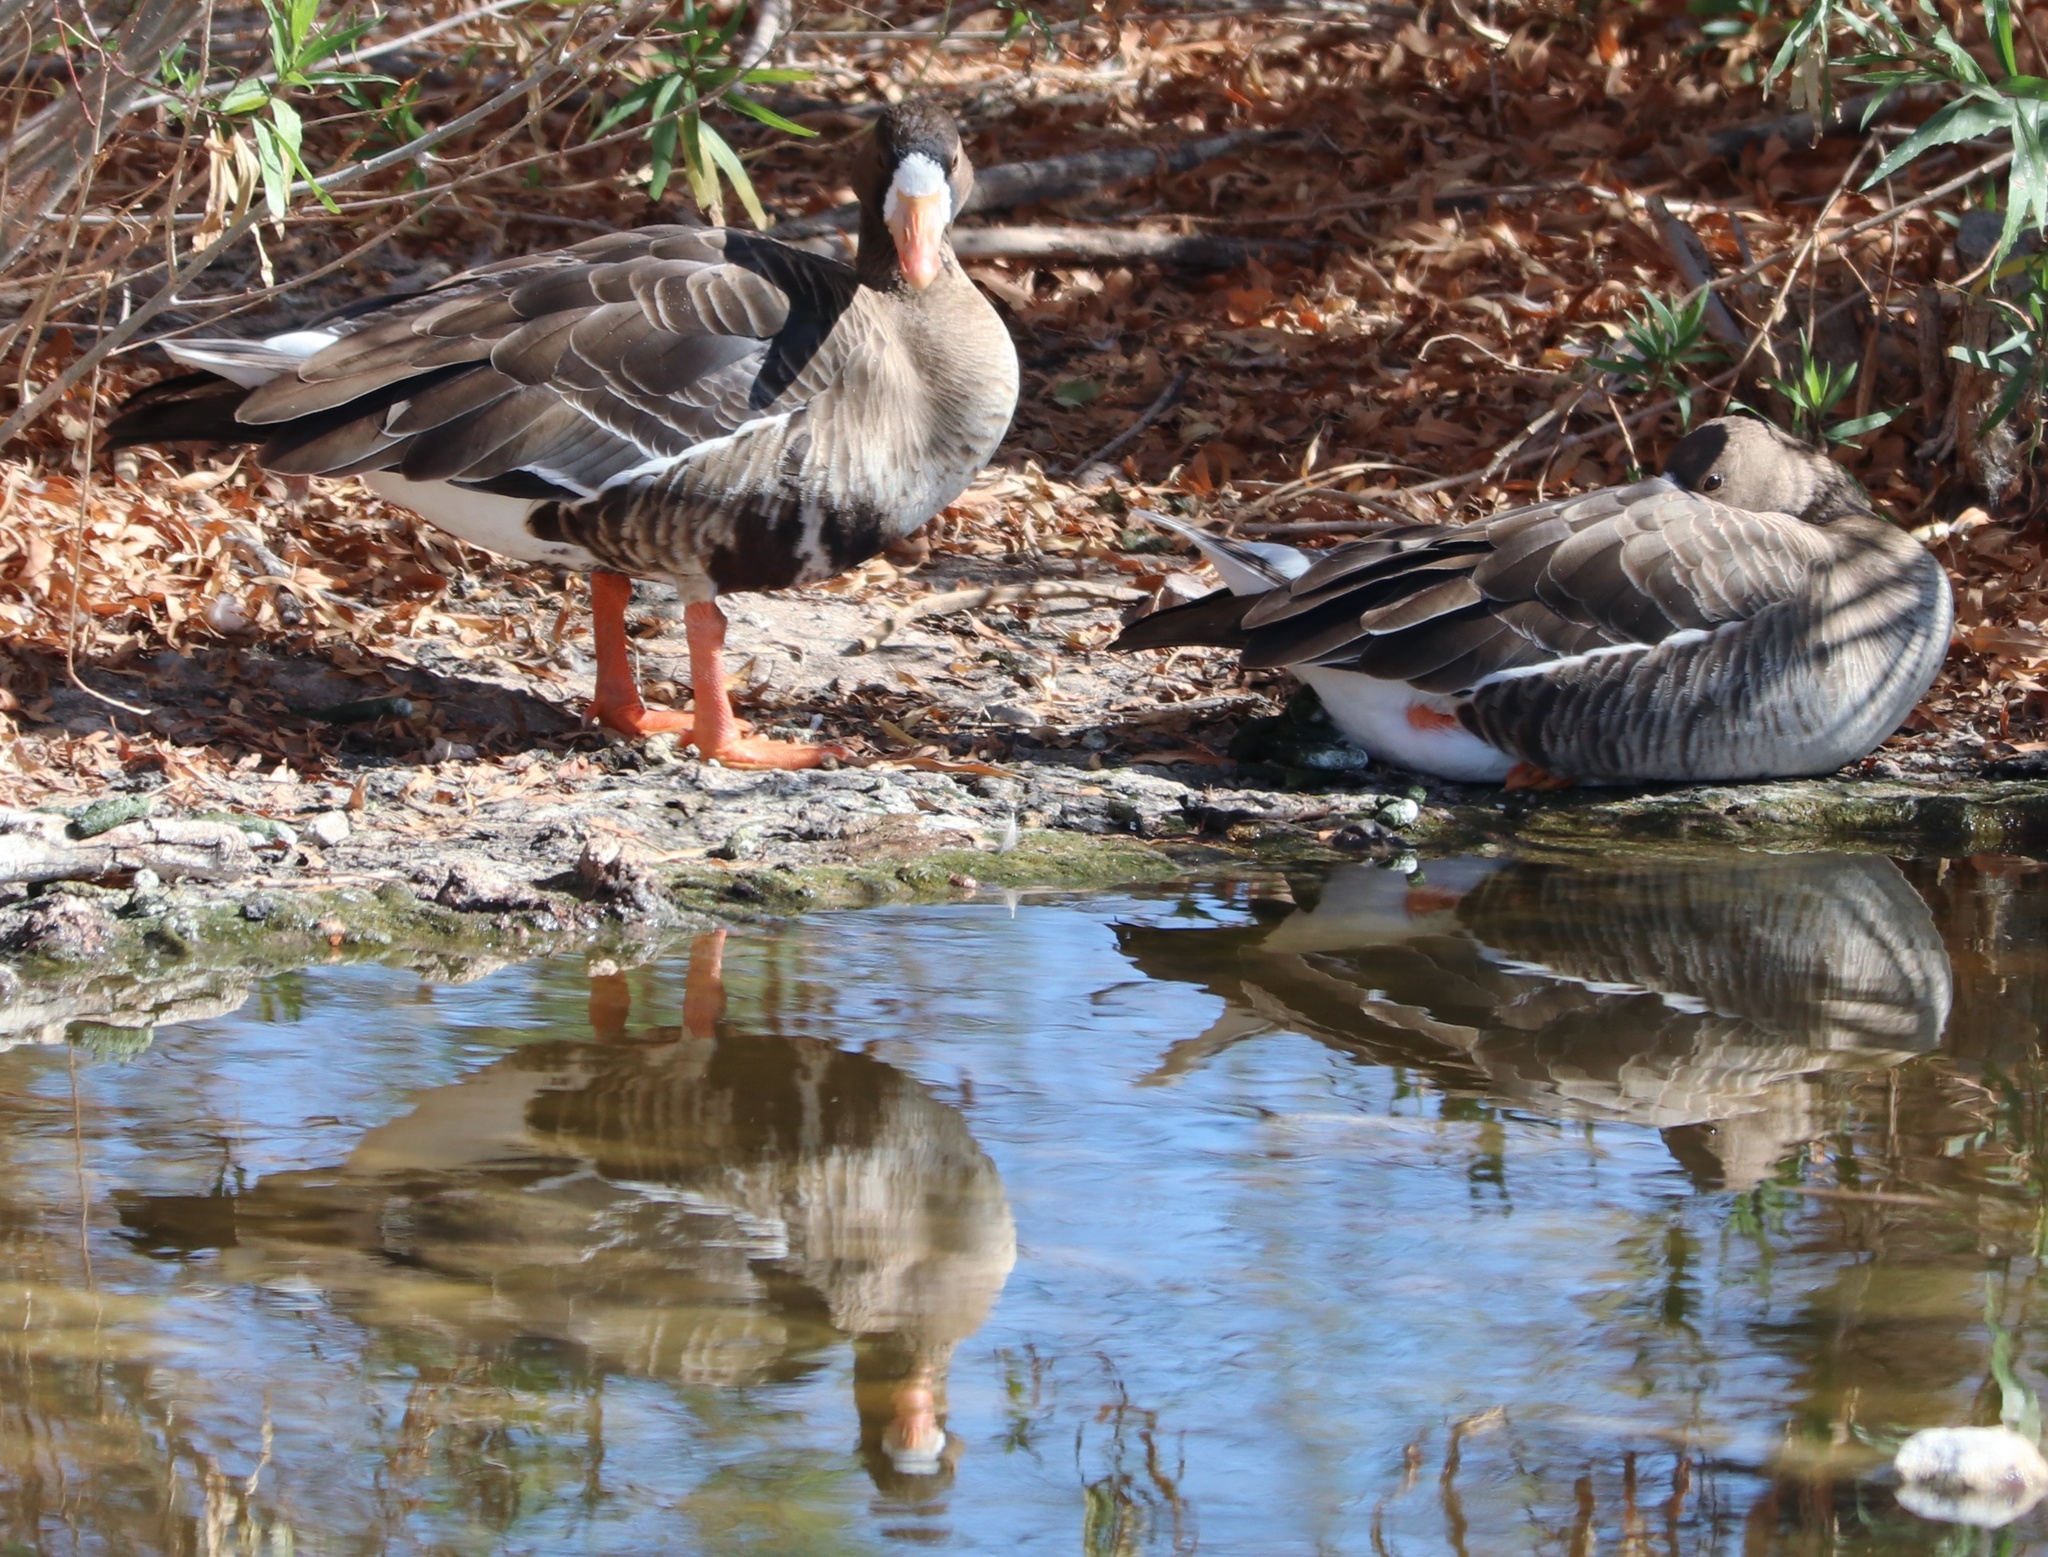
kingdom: Animalia
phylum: Chordata
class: Aves
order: Anseriformes
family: Anatidae
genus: Anser
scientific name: Anser albifrons
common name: Greater white-fronted goose
